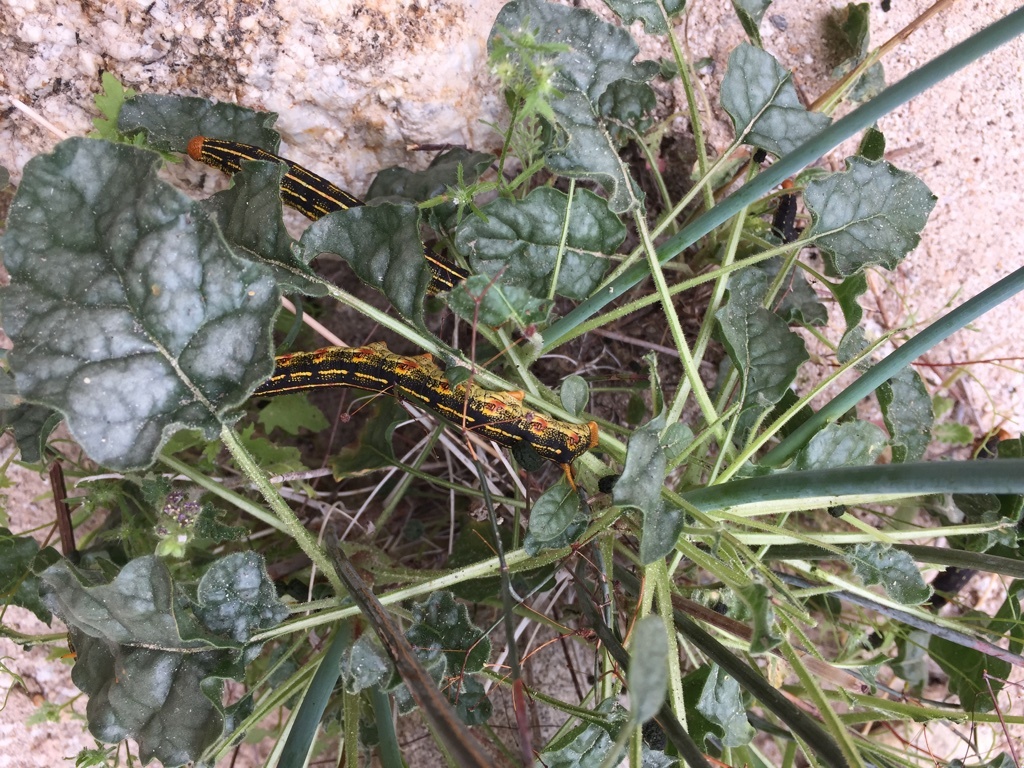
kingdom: Animalia
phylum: Arthropoda
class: Insecta
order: Lepidoptera
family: Sphingidae
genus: Hyles
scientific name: Hyles lineata
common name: White-lined sphinx
